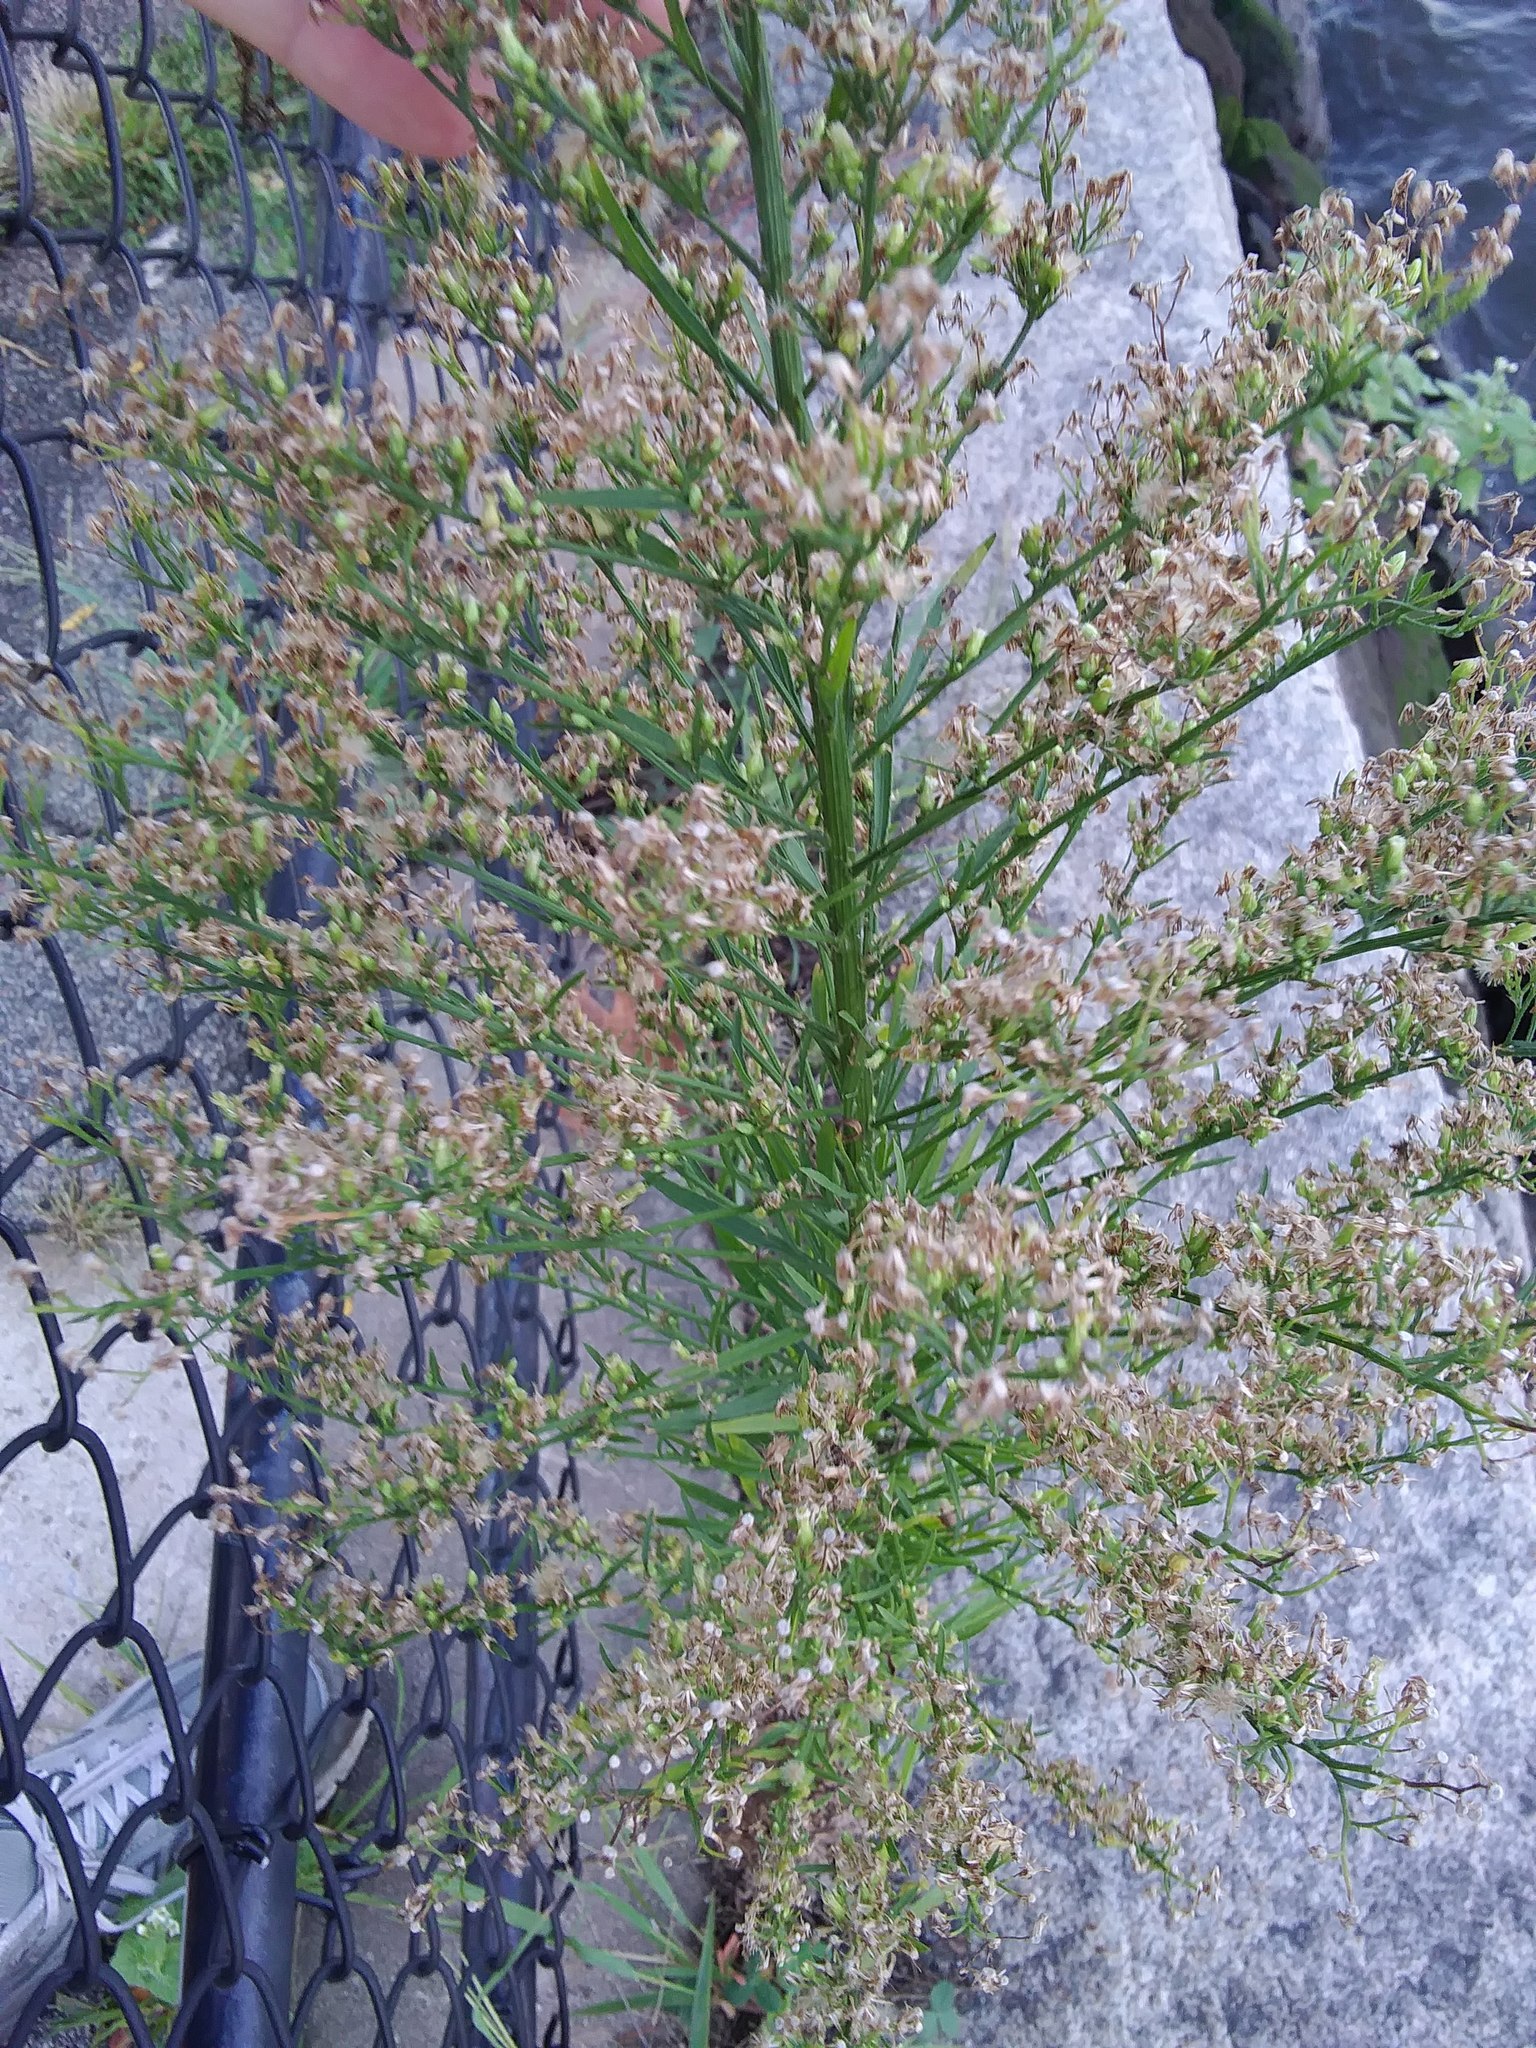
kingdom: Plantae
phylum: Tracheophyta
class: Magnoliopsida
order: Asterales
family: Asteraceae
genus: Erigeron
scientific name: Erigeron canadensis
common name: Canadian fleabane
